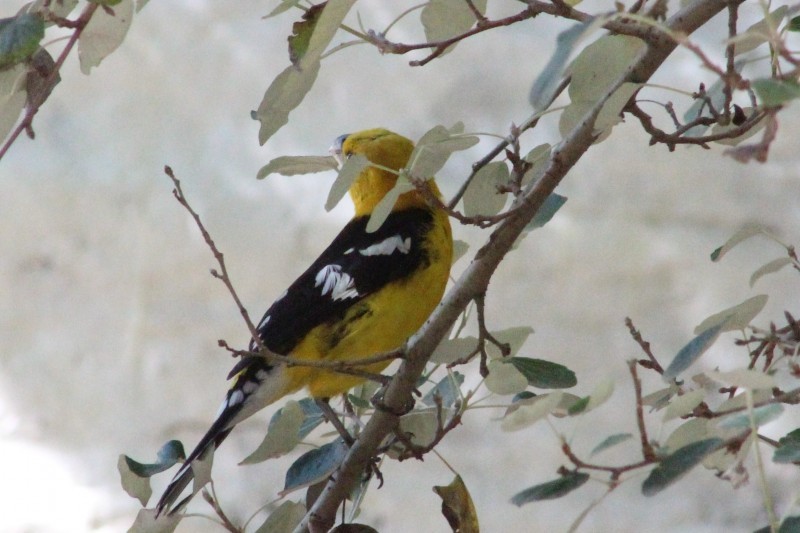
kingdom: Animalia
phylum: Chordata
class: Aves
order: Passeriformes
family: Cardinalidae
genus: Pheucticus
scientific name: Pheucticus chrysogaster
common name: Golden grosbeak
